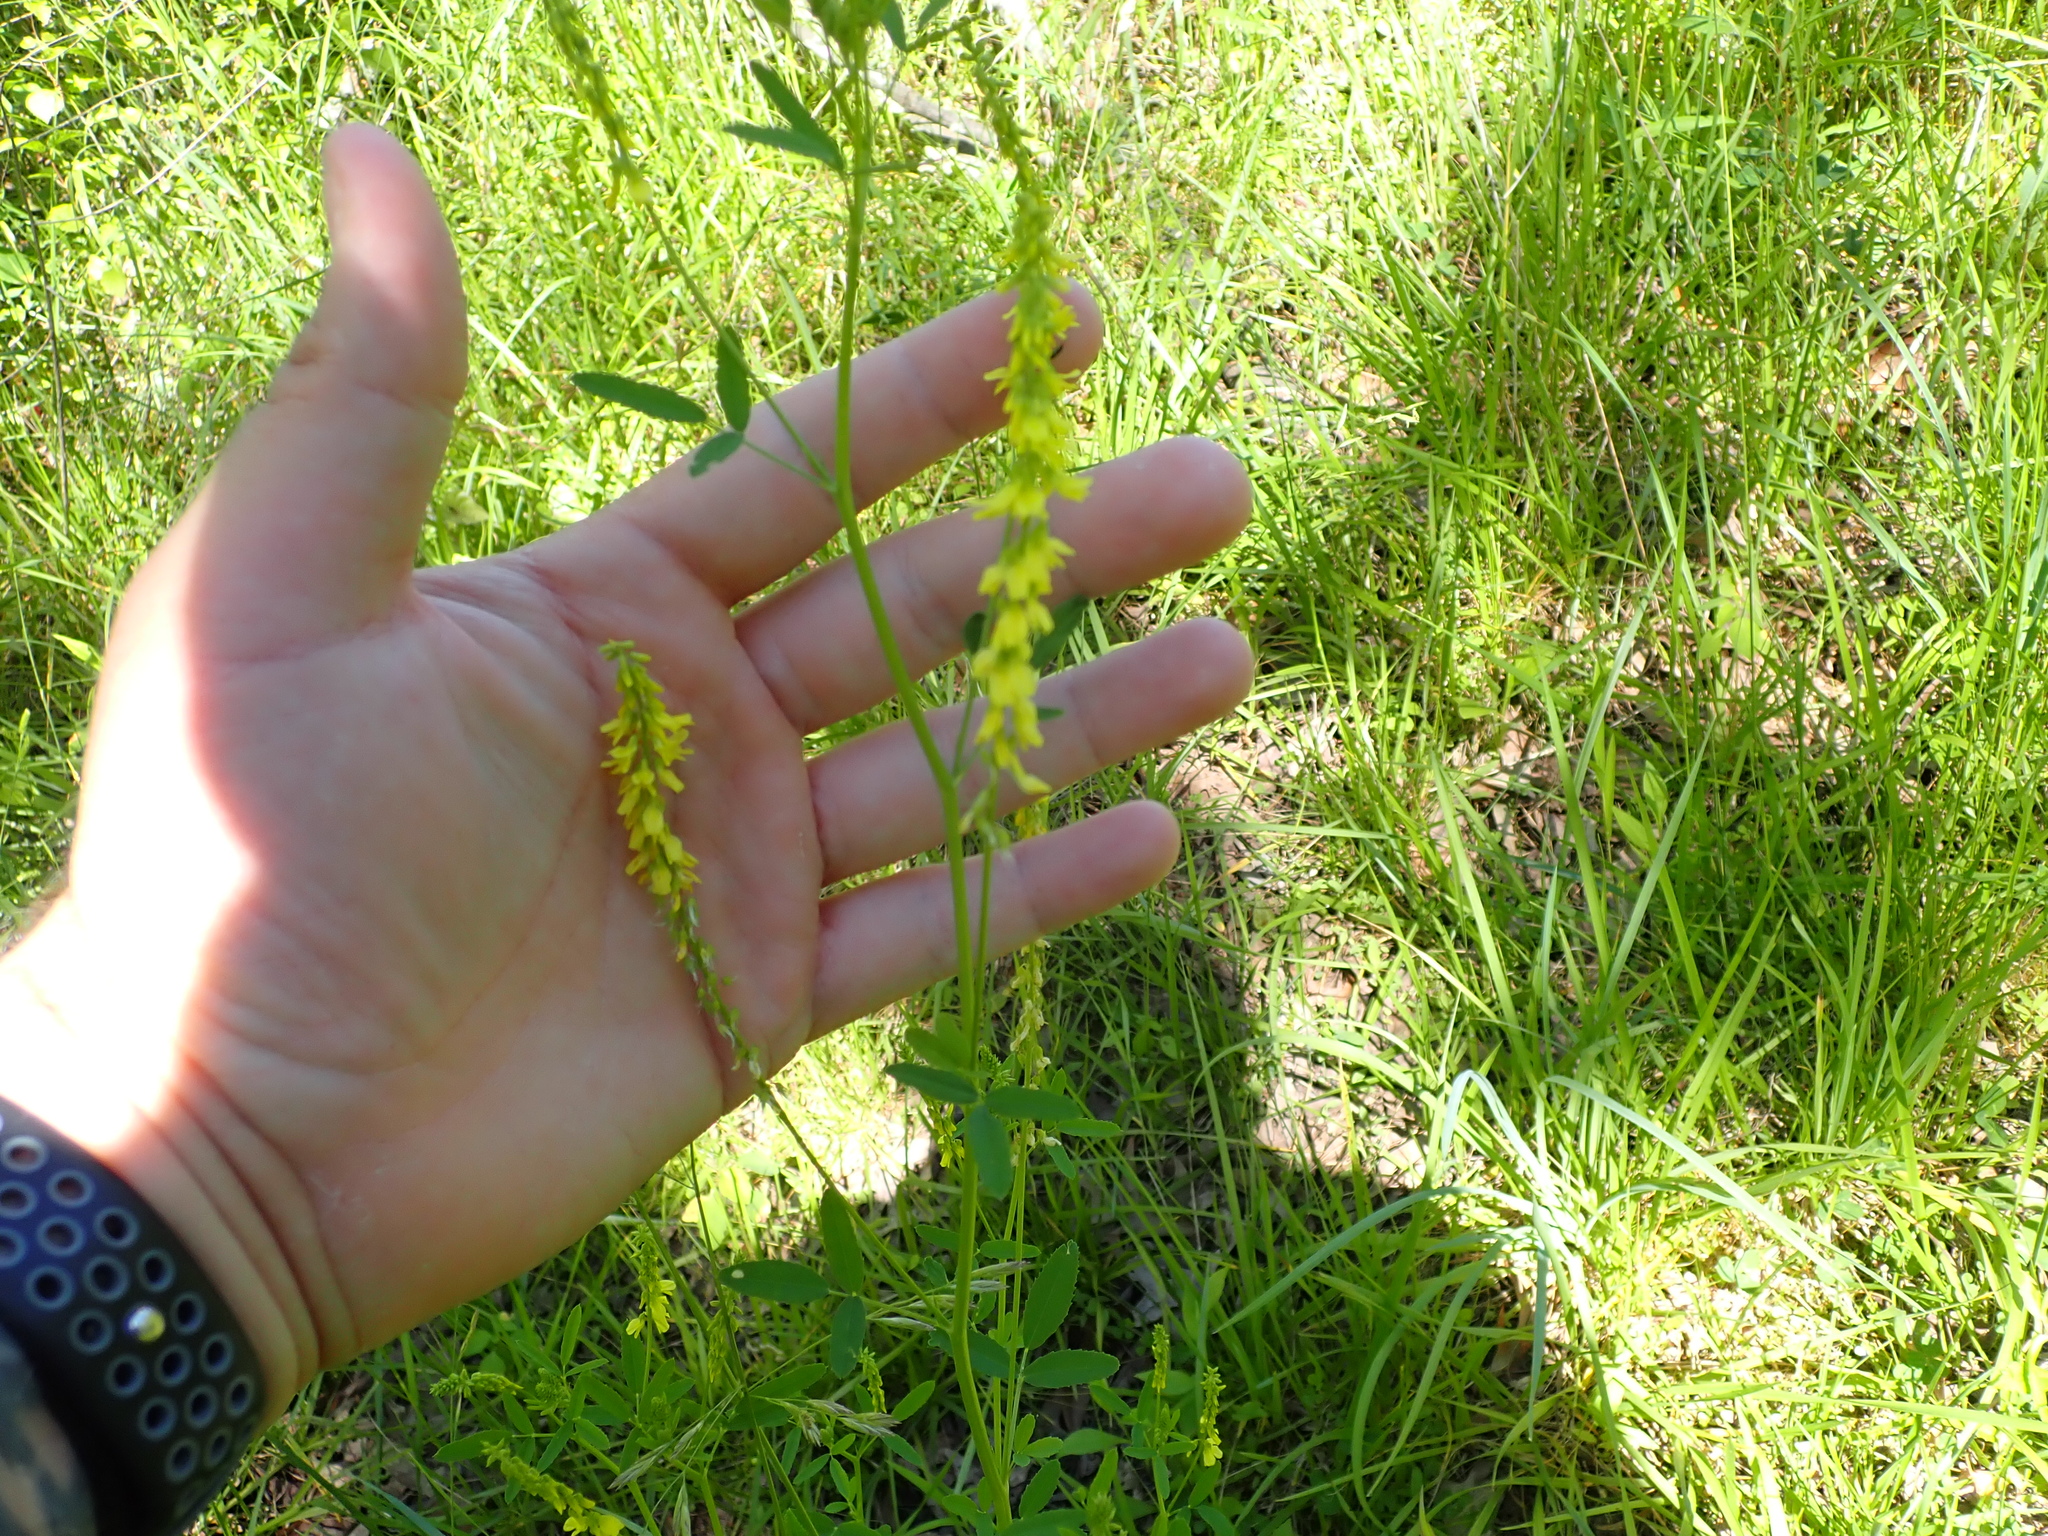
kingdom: Plantae
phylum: Tracheophyta
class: Magnoliopsida
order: Fabales
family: Fabaceae
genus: Melilotus
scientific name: Melilotus officinalis
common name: Sweetclover
